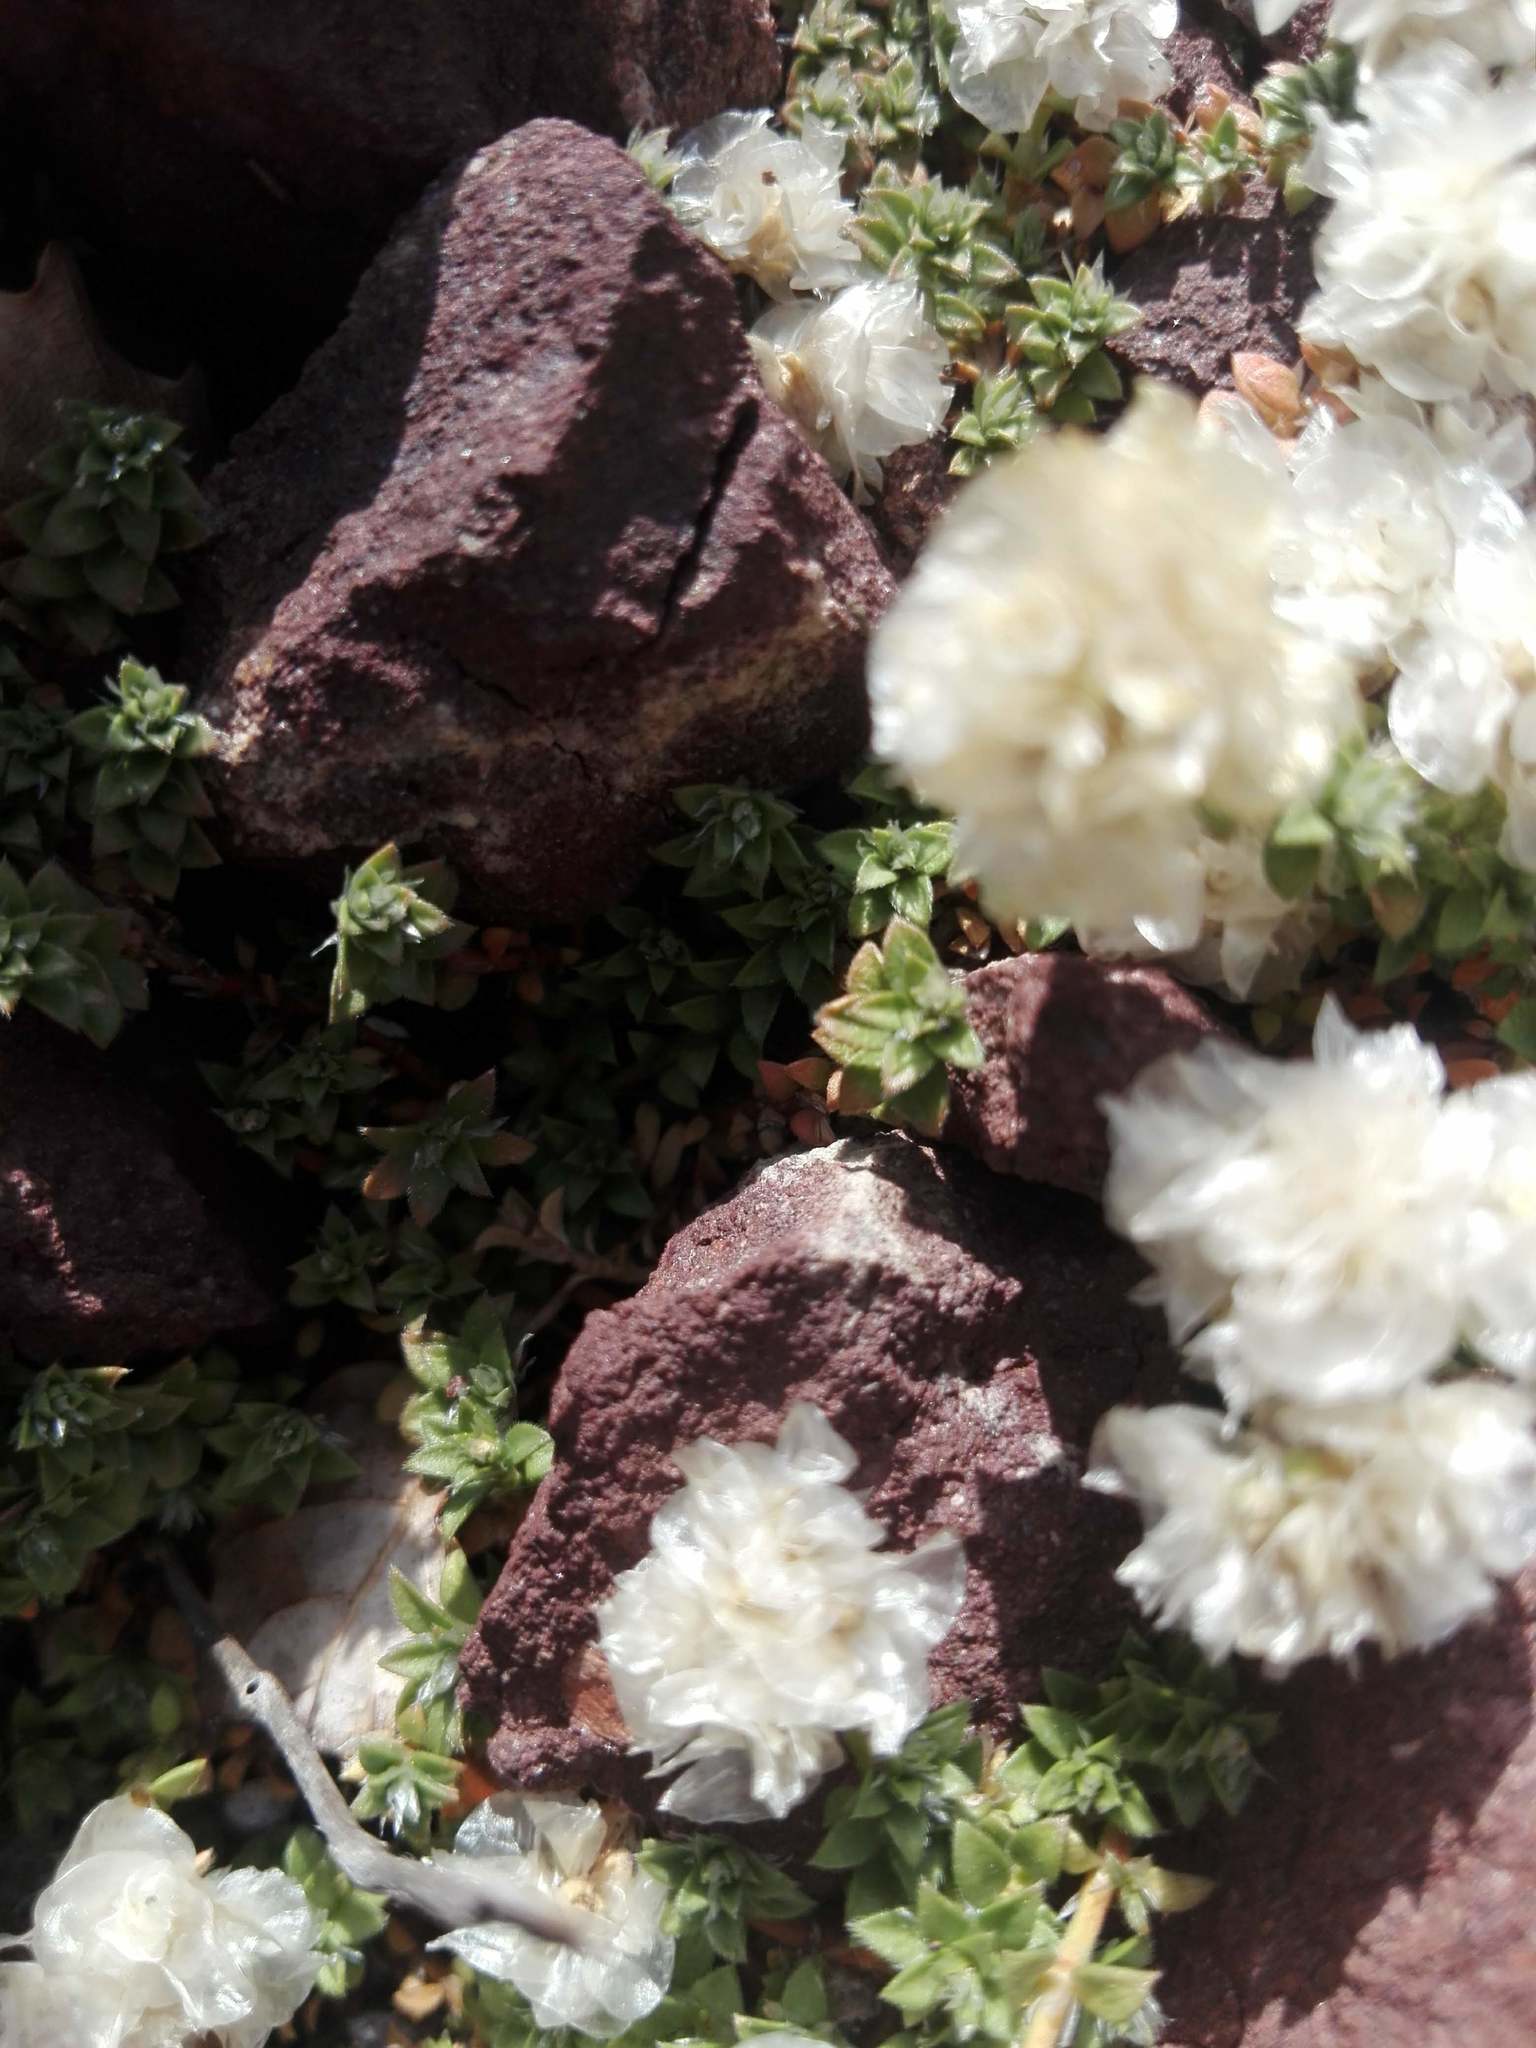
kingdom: Plantae
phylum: Tracheophyta
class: Magnoliopsida
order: Caryophyllales
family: Caryophyllaceae
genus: Paronychia
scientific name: Paronychia kapela
